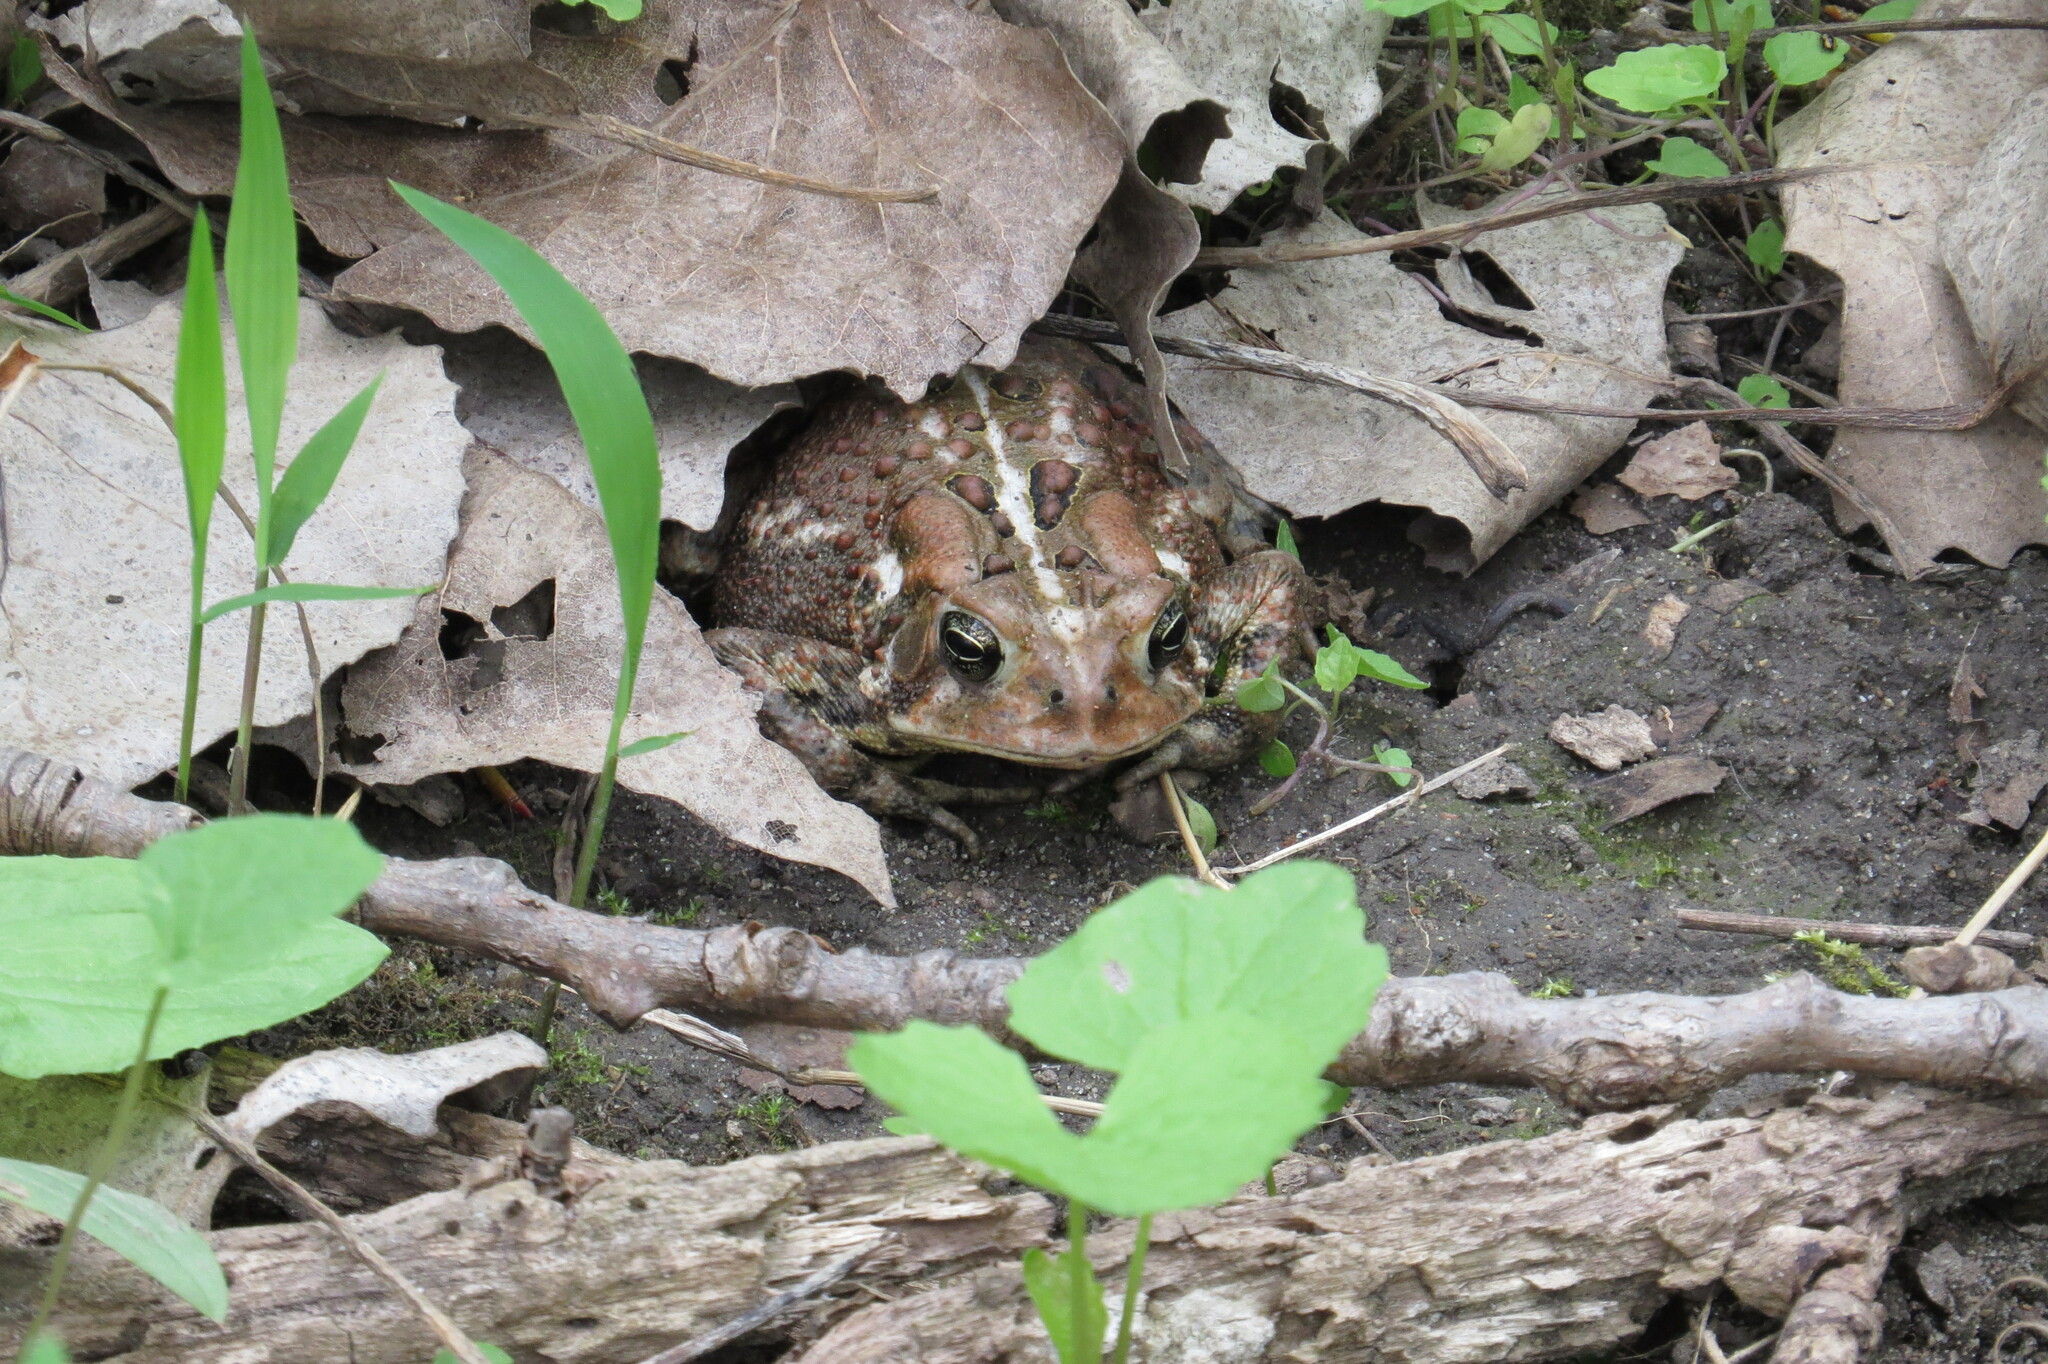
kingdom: Animalia
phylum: Chordata
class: Amphibia
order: Anura
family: Bufonidae
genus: Anaxyrus
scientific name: Anaxyrus americanus
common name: American toad
